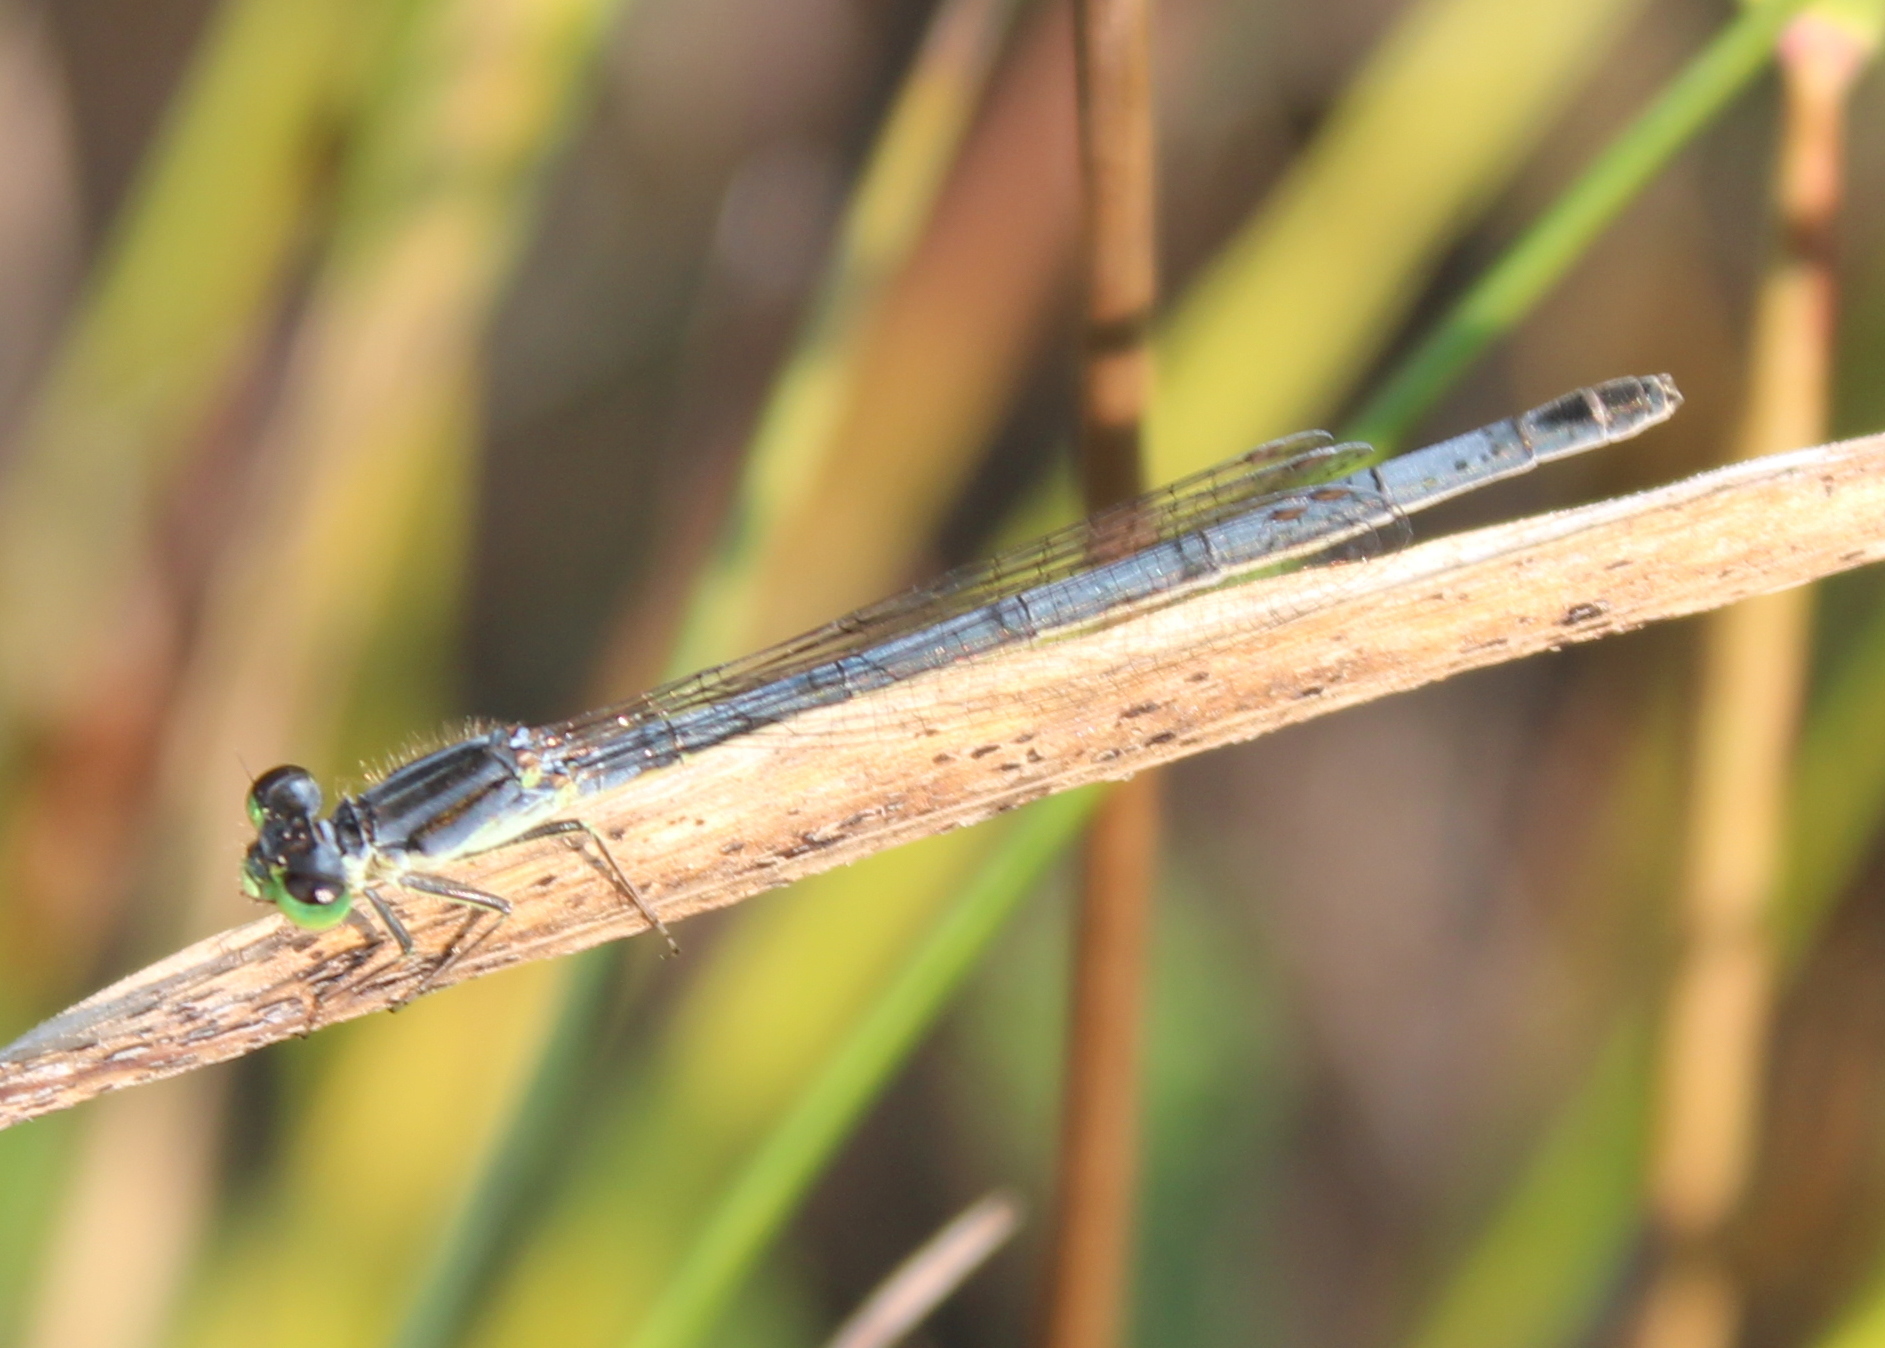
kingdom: Animalia
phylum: Arthropoda
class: Insecta
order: Odonata
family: Coenagrionidae
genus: Ischnura
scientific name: Ischnura verticalis
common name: Eastern forktail
